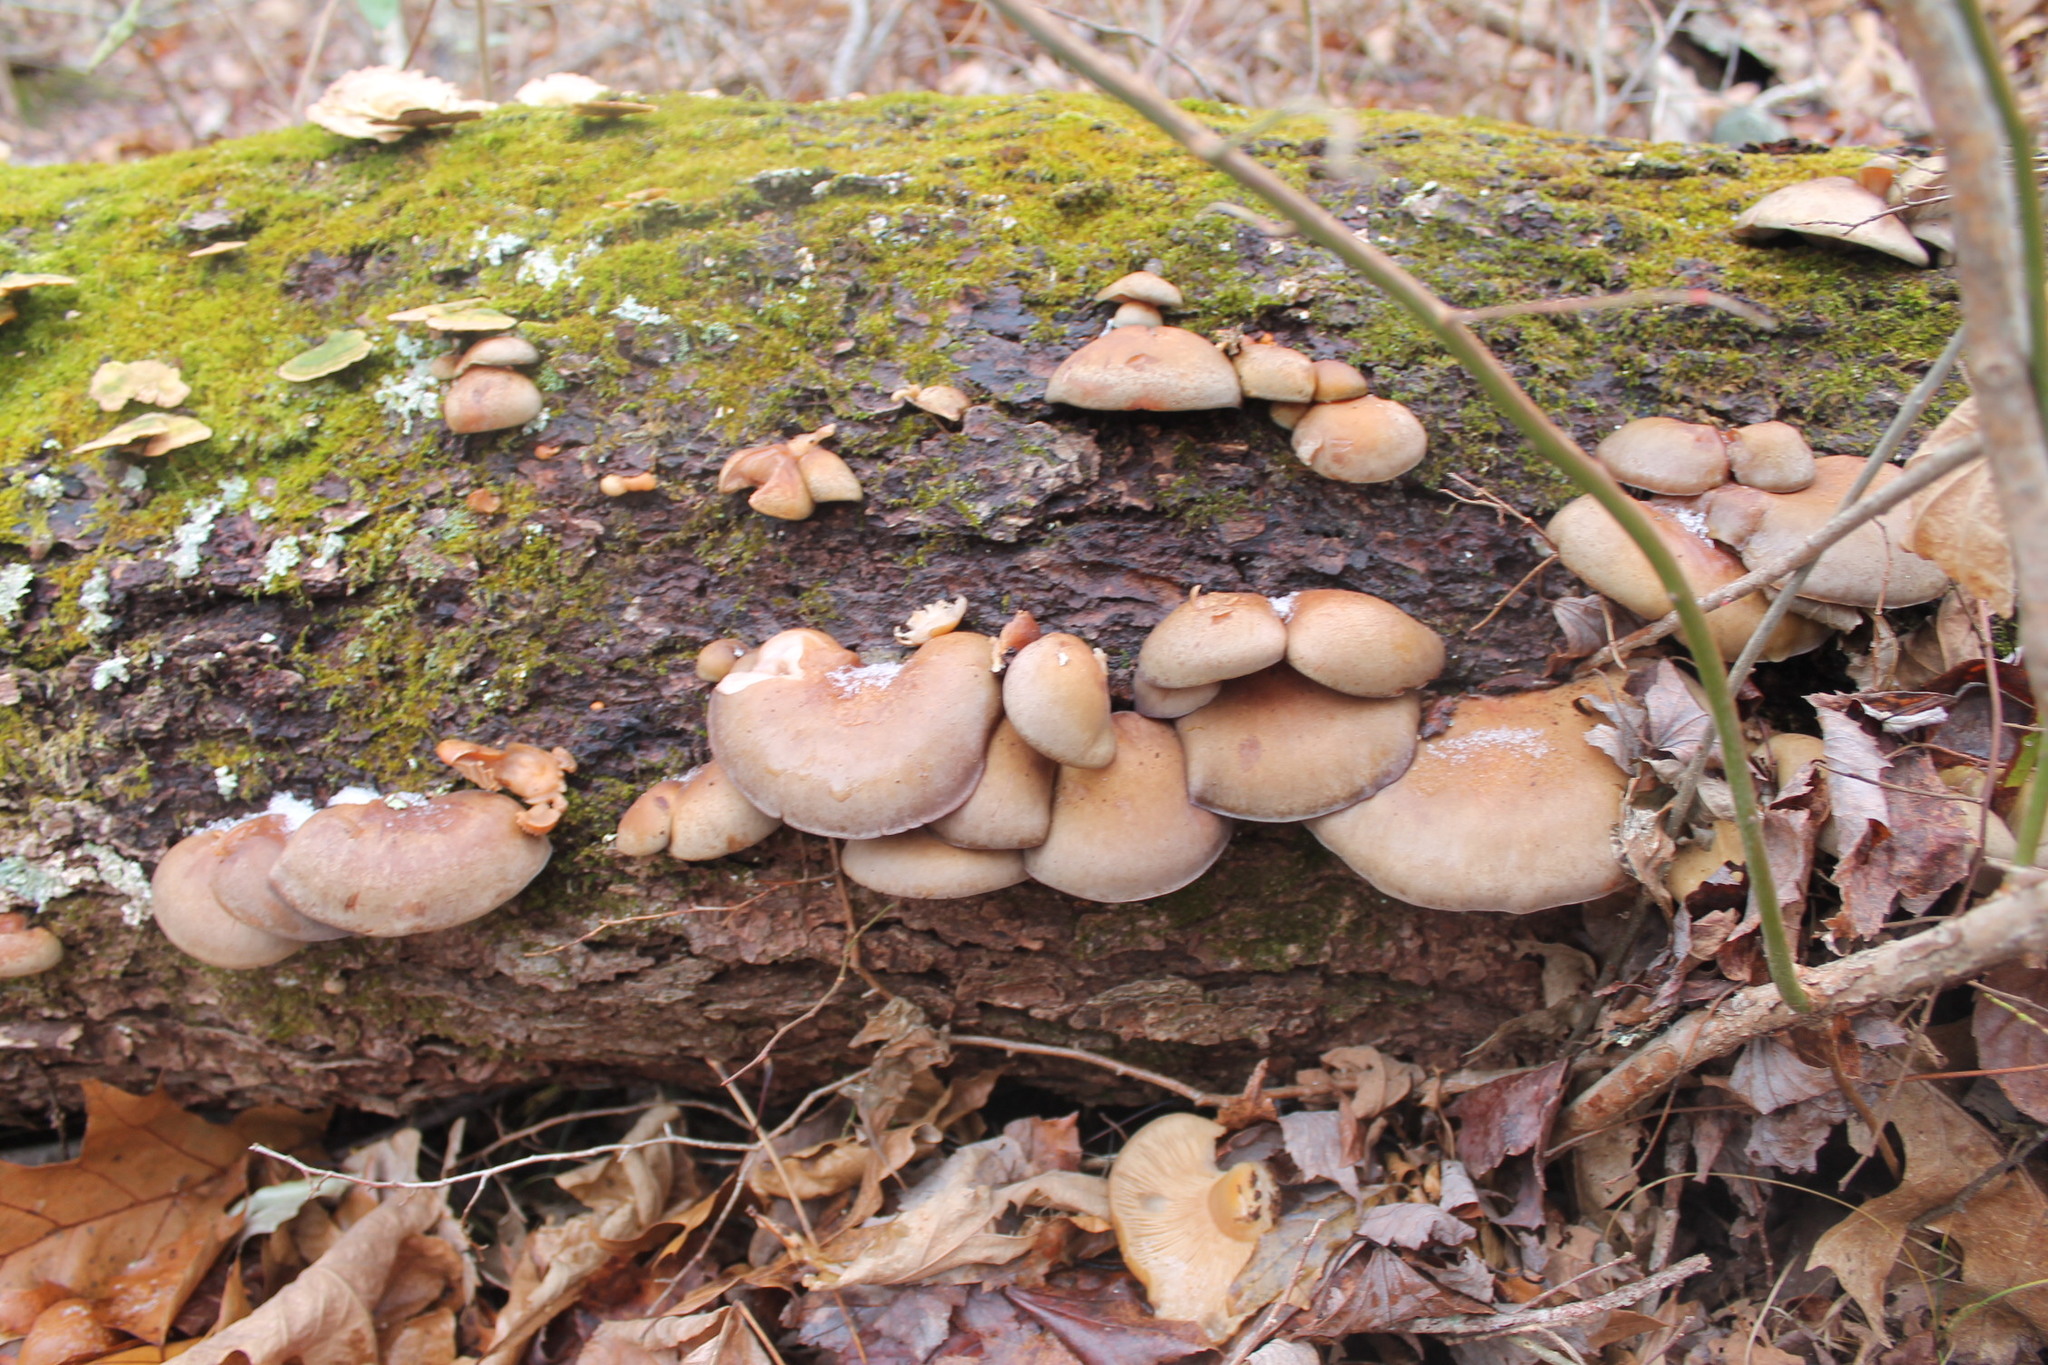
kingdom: Fungi
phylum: Basidiomycota
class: Agaricomycetes
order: Agaricales
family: Sarcomyxaceae
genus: Sarcomyxa
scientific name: Sarcomyxa serotina
